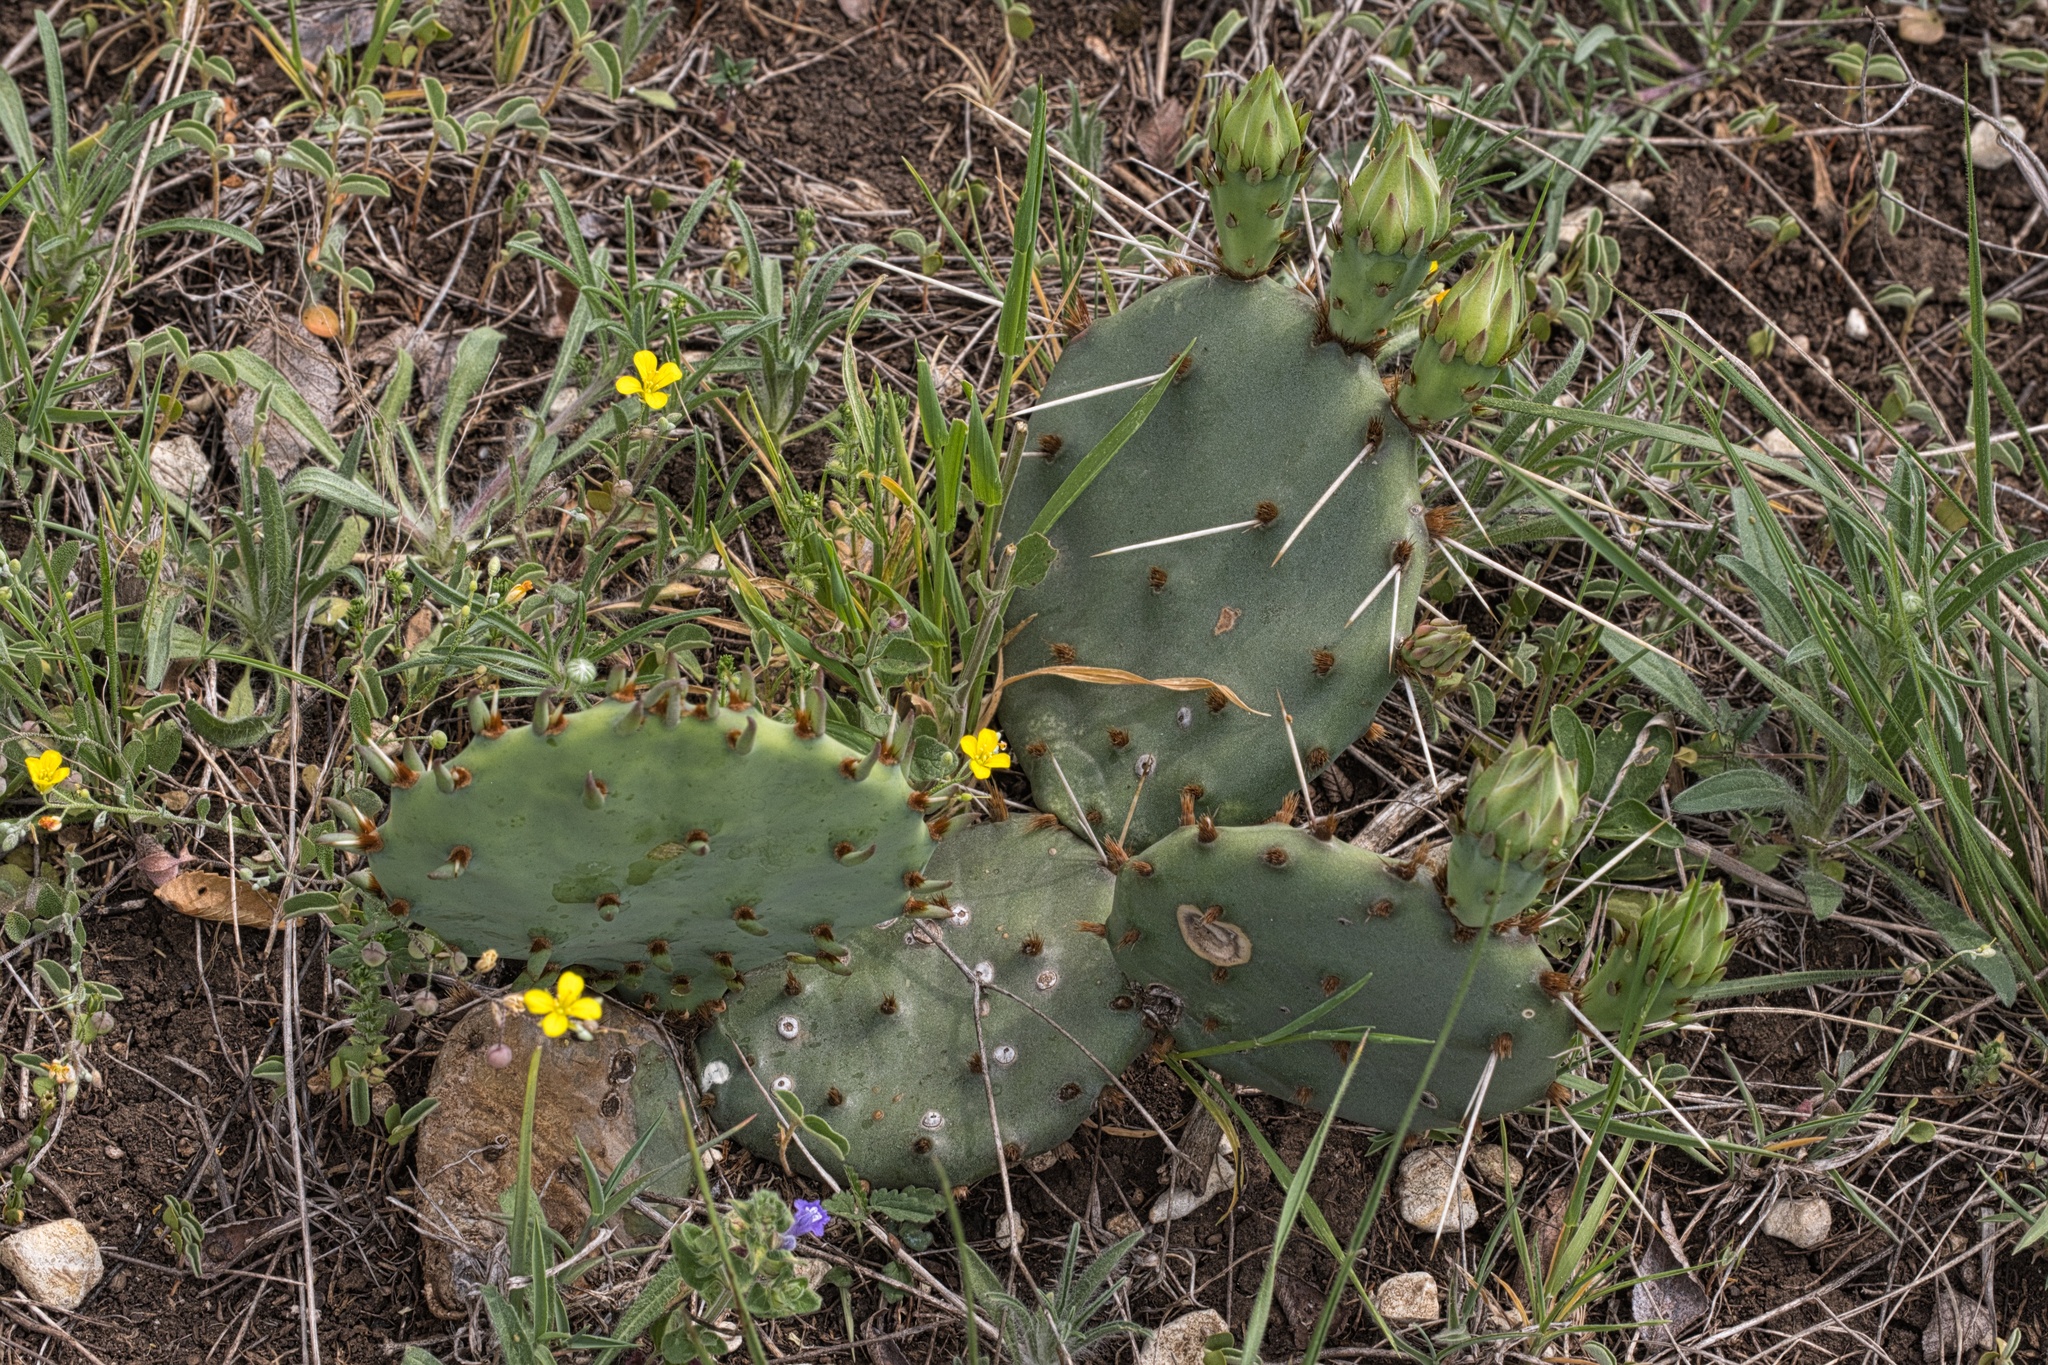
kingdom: Plantae
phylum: Tracheophyta
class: Magnoliopsida
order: Caryophyllales
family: Cactaceae
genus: Opuntia
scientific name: Opuntia macrorhiza
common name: Grassland pricklypear
